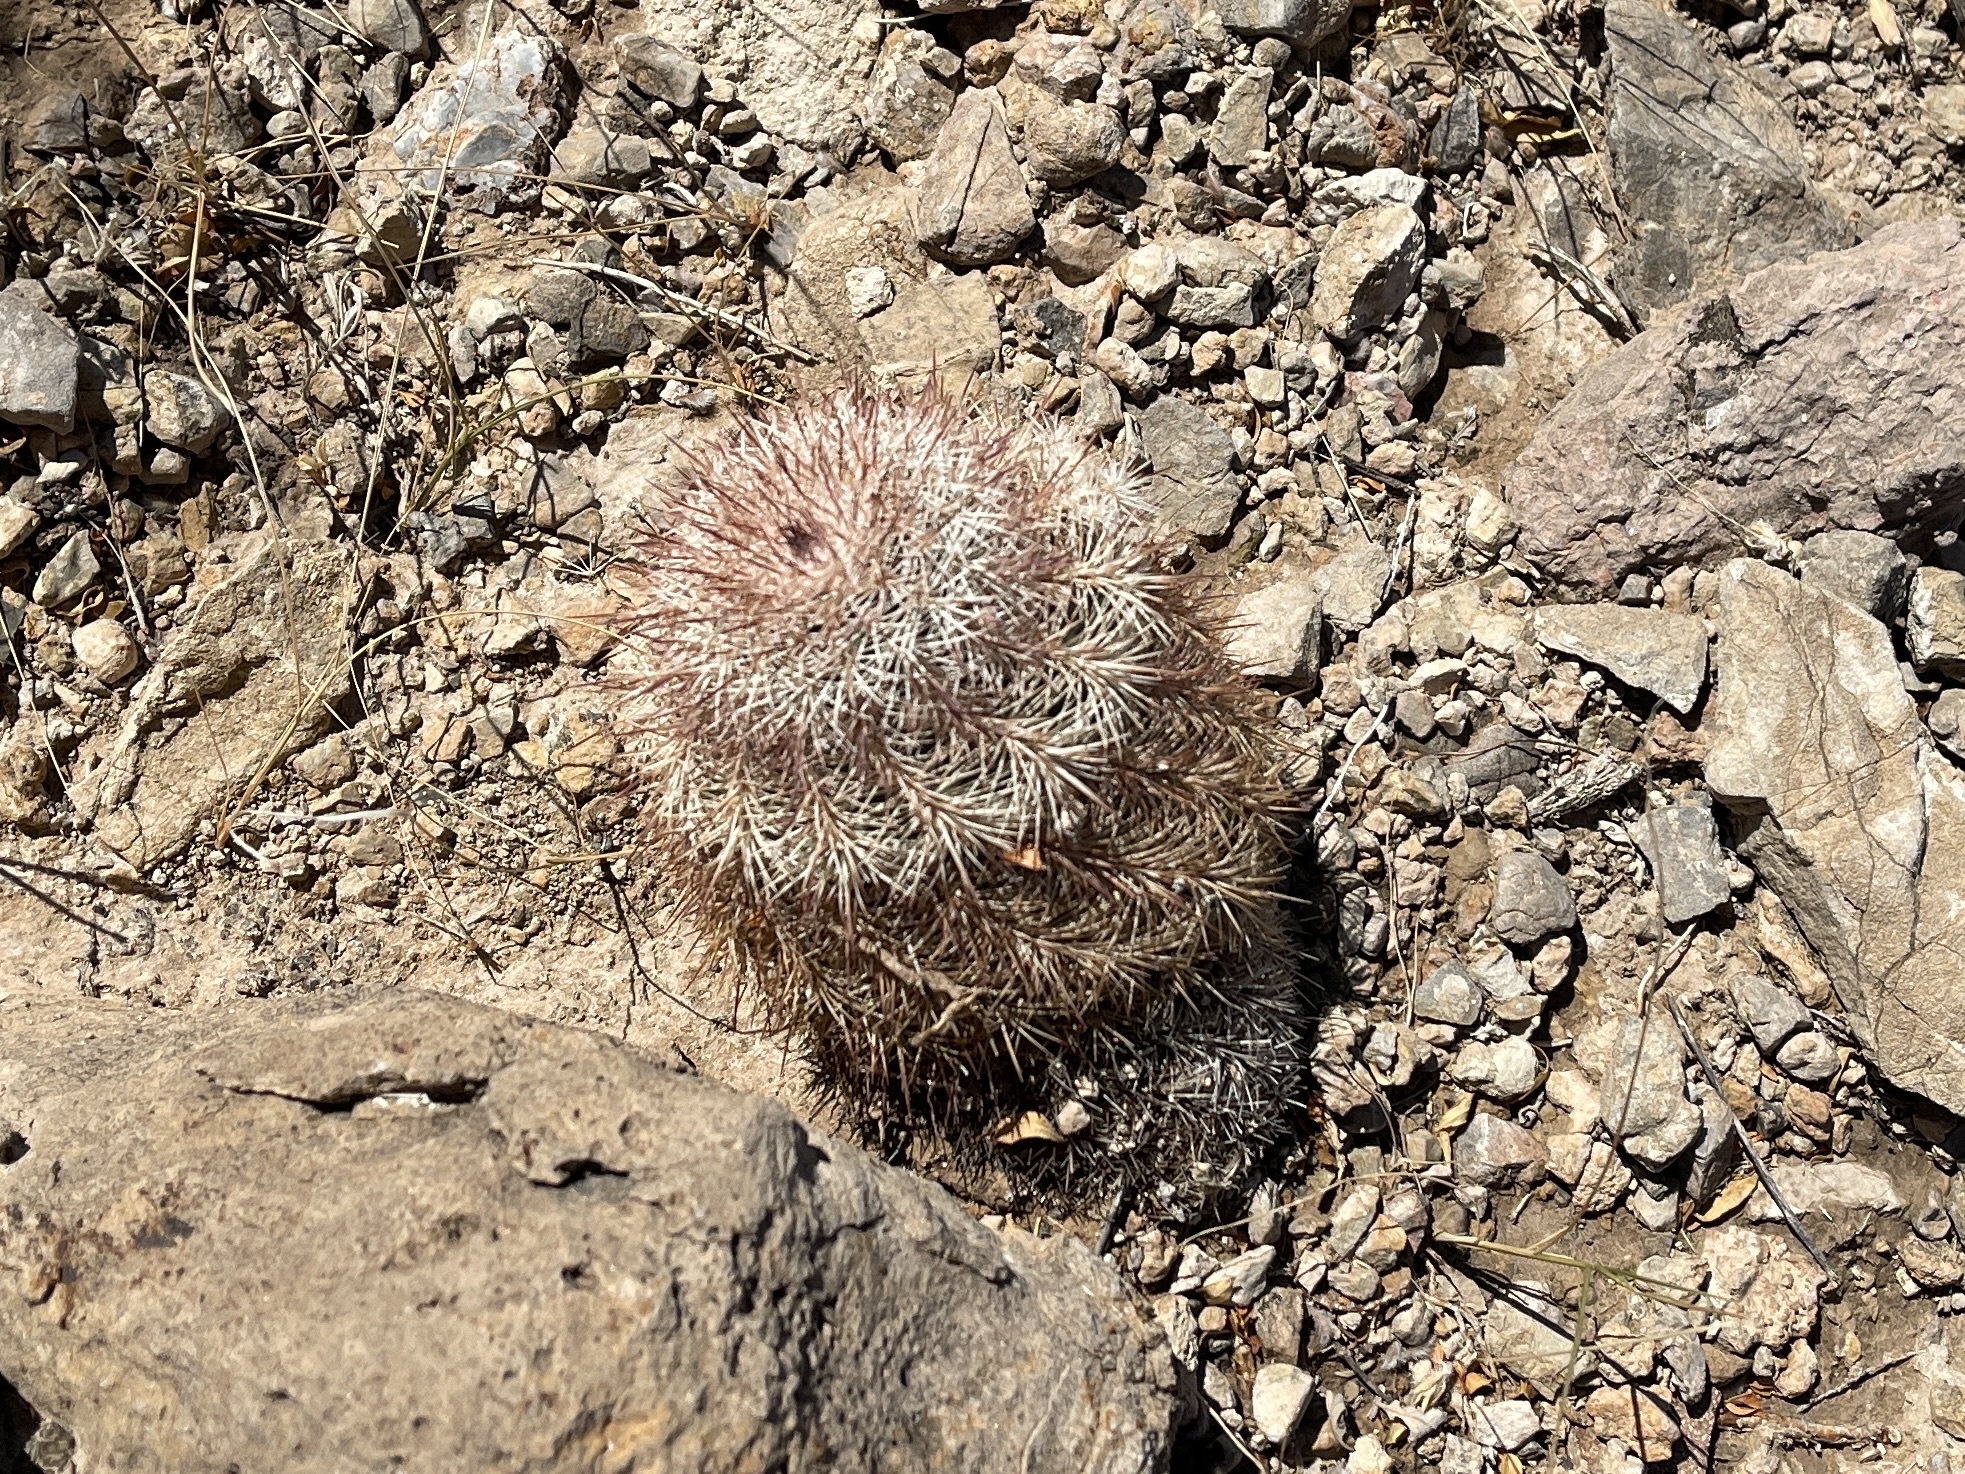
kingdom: Plantae
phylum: Tracheophyta
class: Magnoliopsida
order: Caryophyllales
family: Cactaceae
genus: Echinocereus
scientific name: Echinocereus dasyacanthus
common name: Spiny hedgehog cactus
